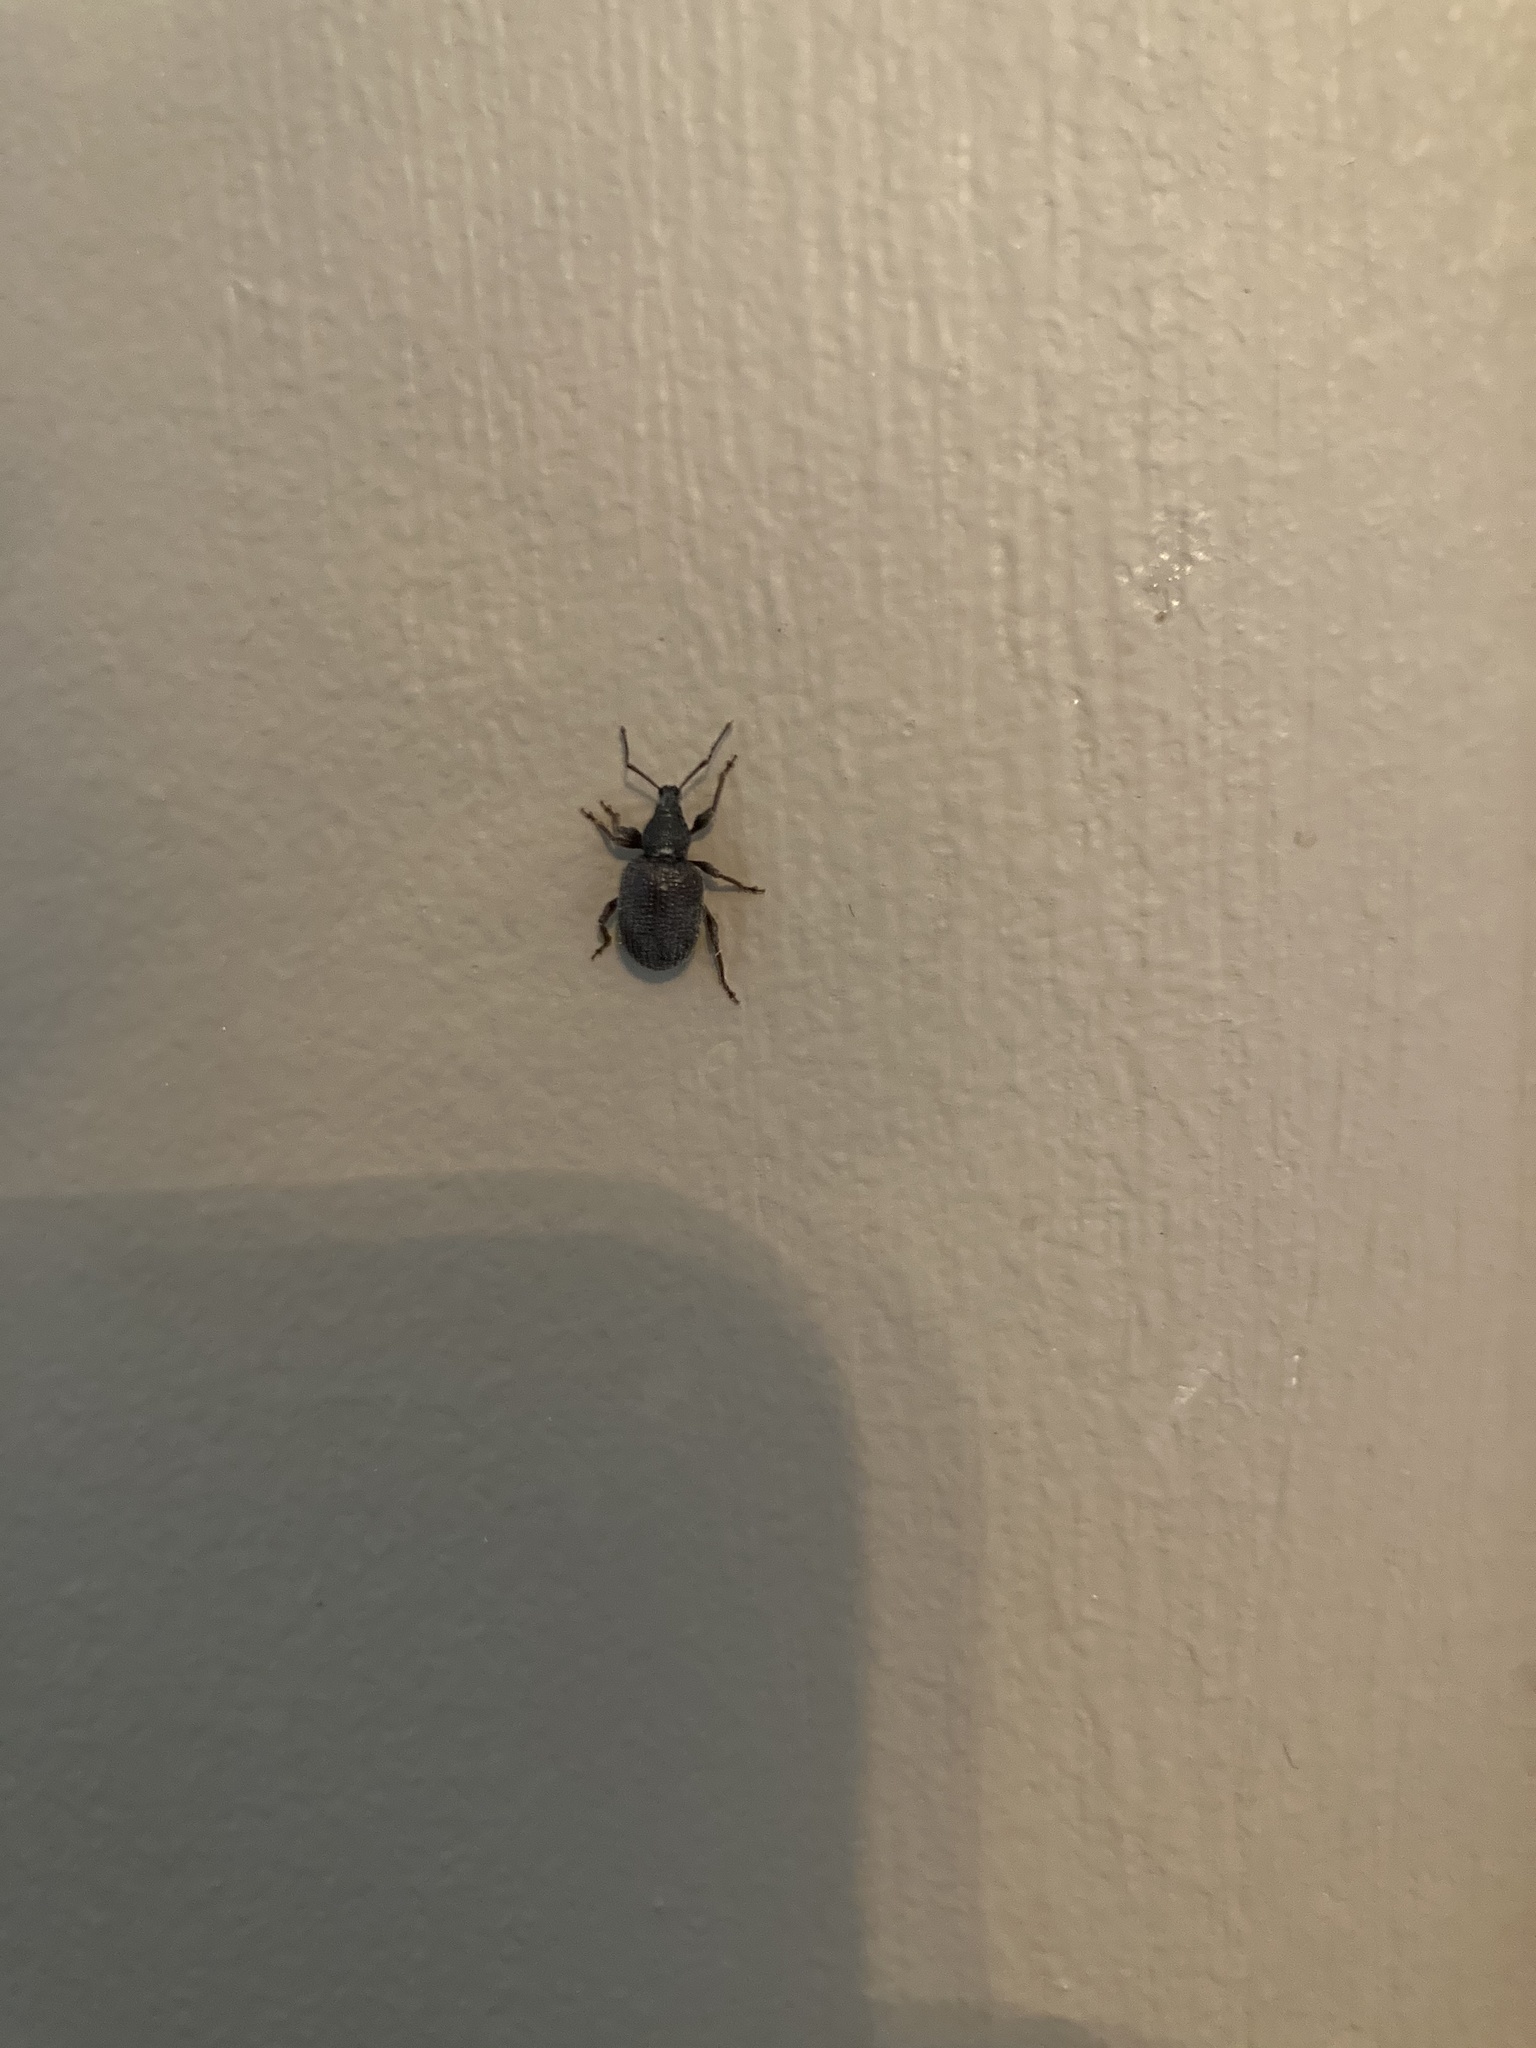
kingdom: Animalia
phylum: Arthropoda
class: Insecta
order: Coleoptera
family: Curculionidae
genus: Otiorhynchus
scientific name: Otiorhynchus rugosostriatus
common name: Weevil
